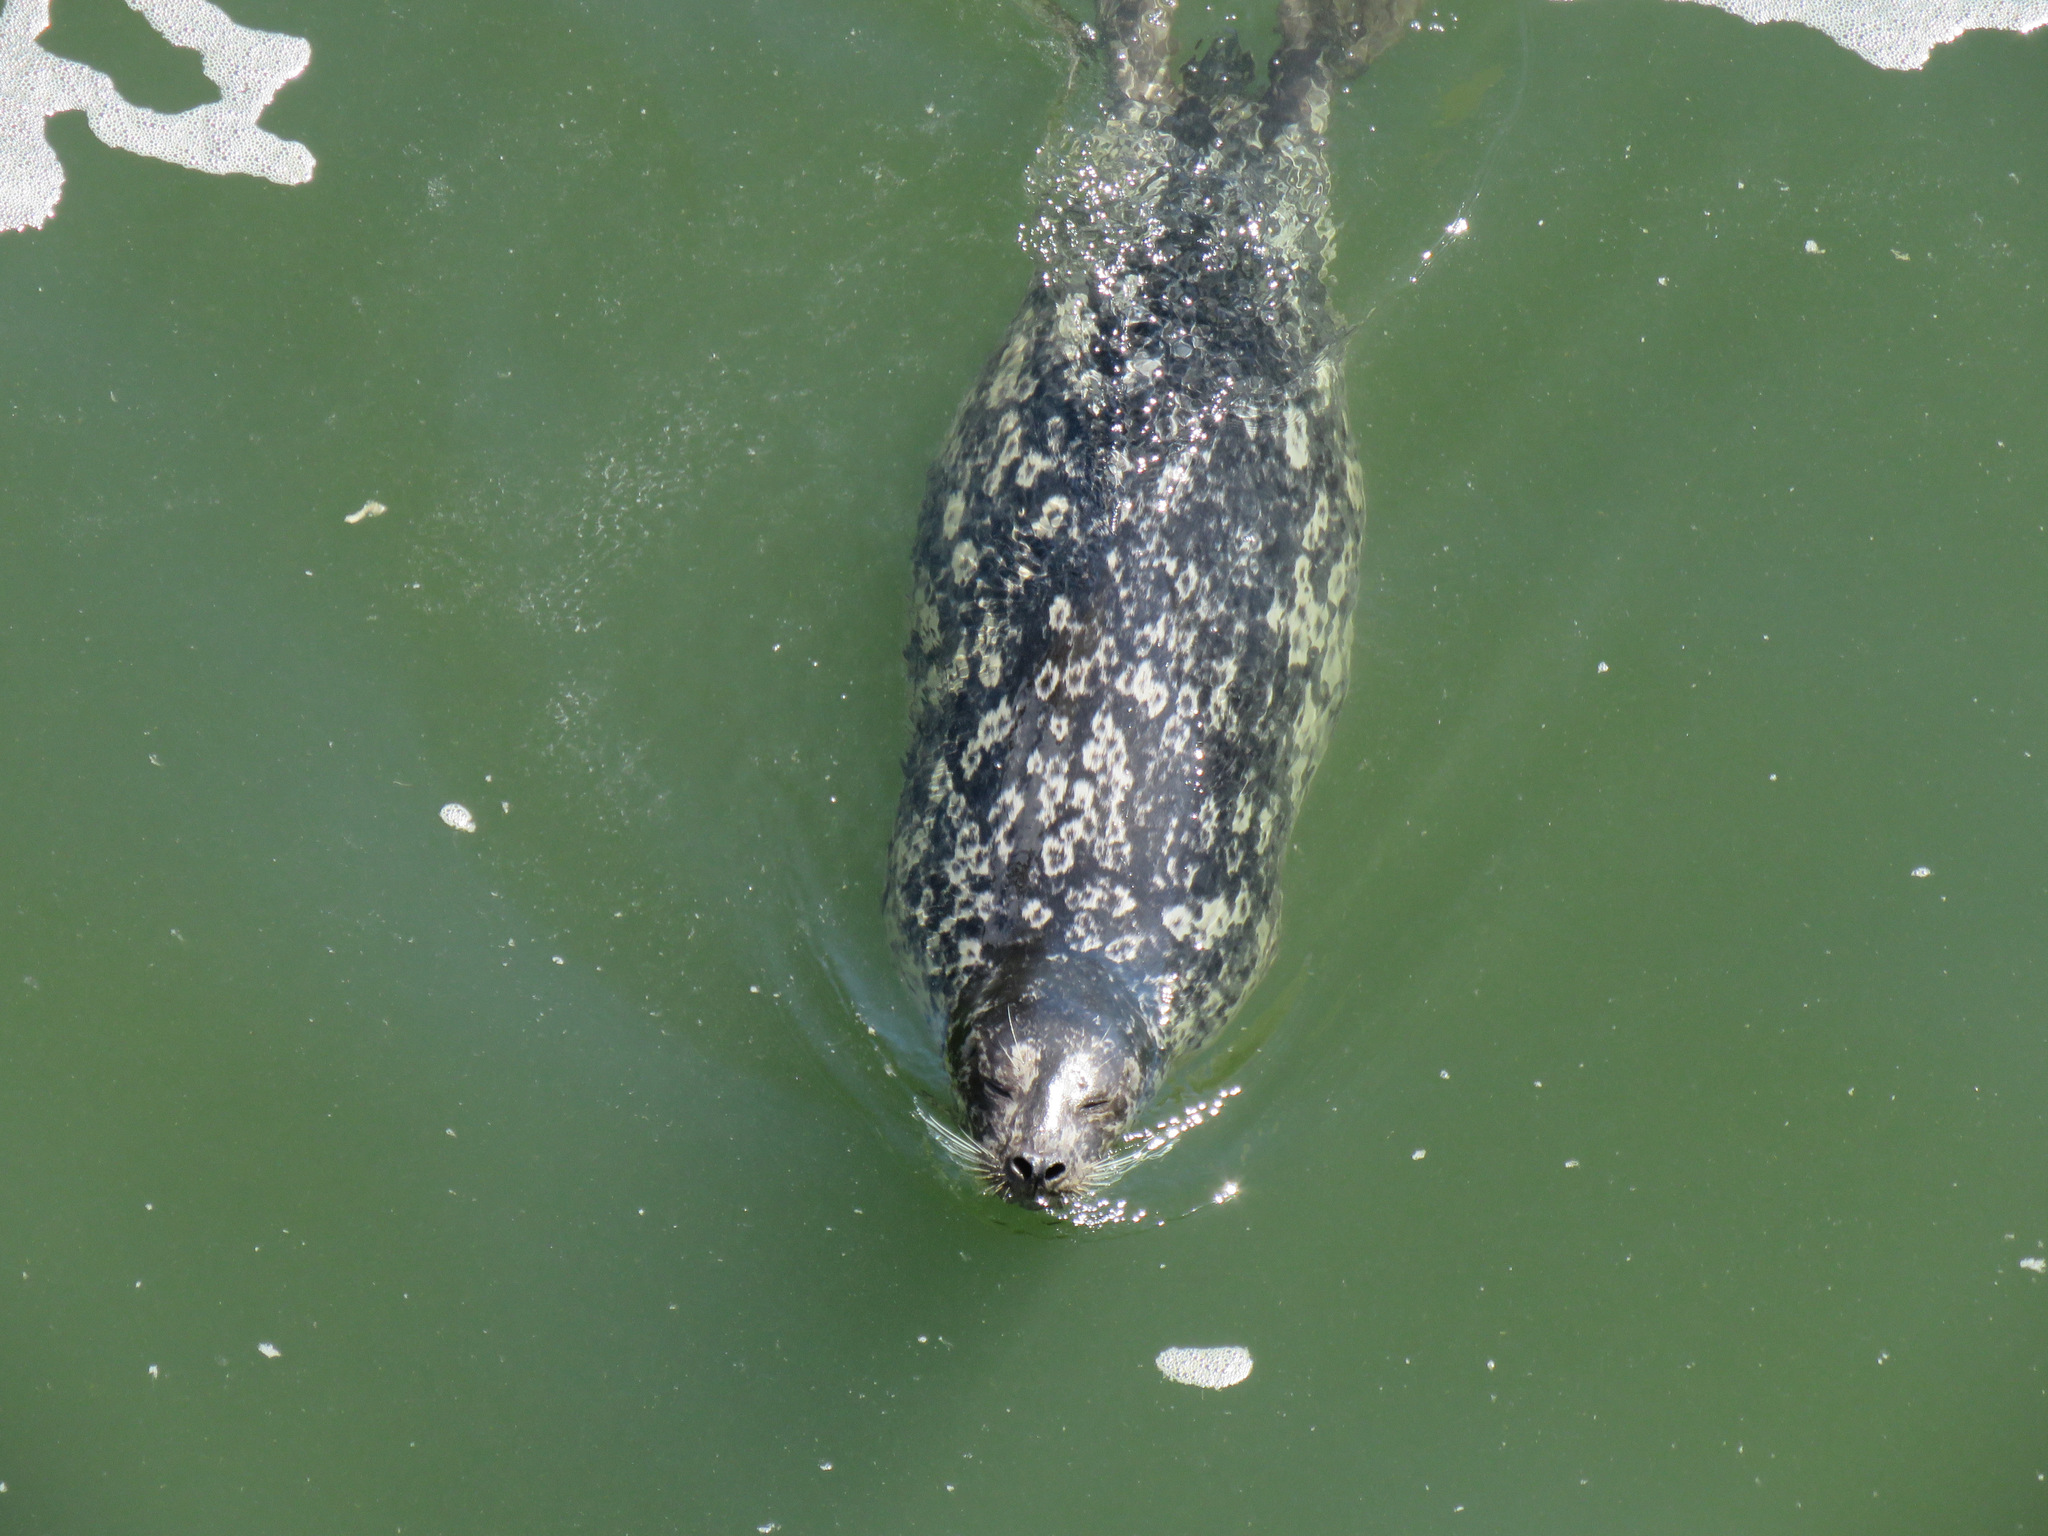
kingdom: Animalia
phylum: Chordata
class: Mammalia
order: Carnivora
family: Phocidae
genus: Phoca
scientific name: Phoca vitulina
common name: Harbor seal
